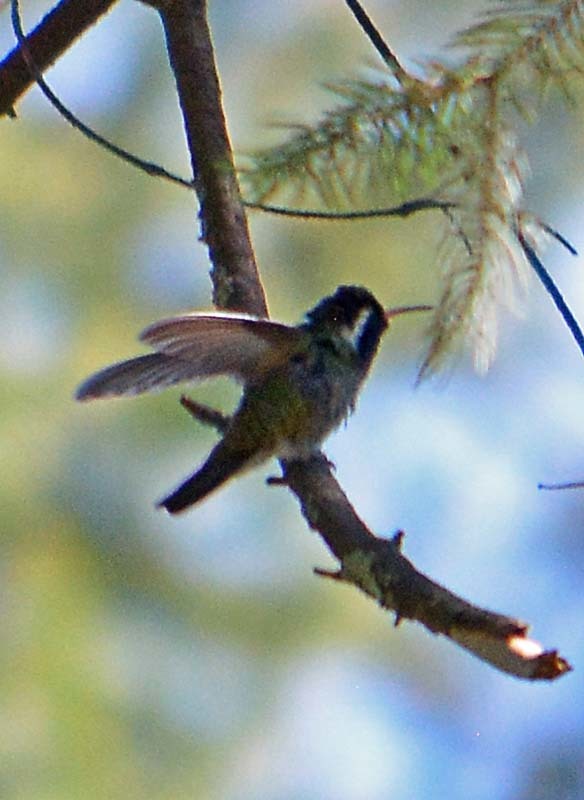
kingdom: Animalia
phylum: Chordata
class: Aves
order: Apodiformes
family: Trochilidae
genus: Basilinna
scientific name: Basilinna leucotis
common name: White-eared hummingbird
